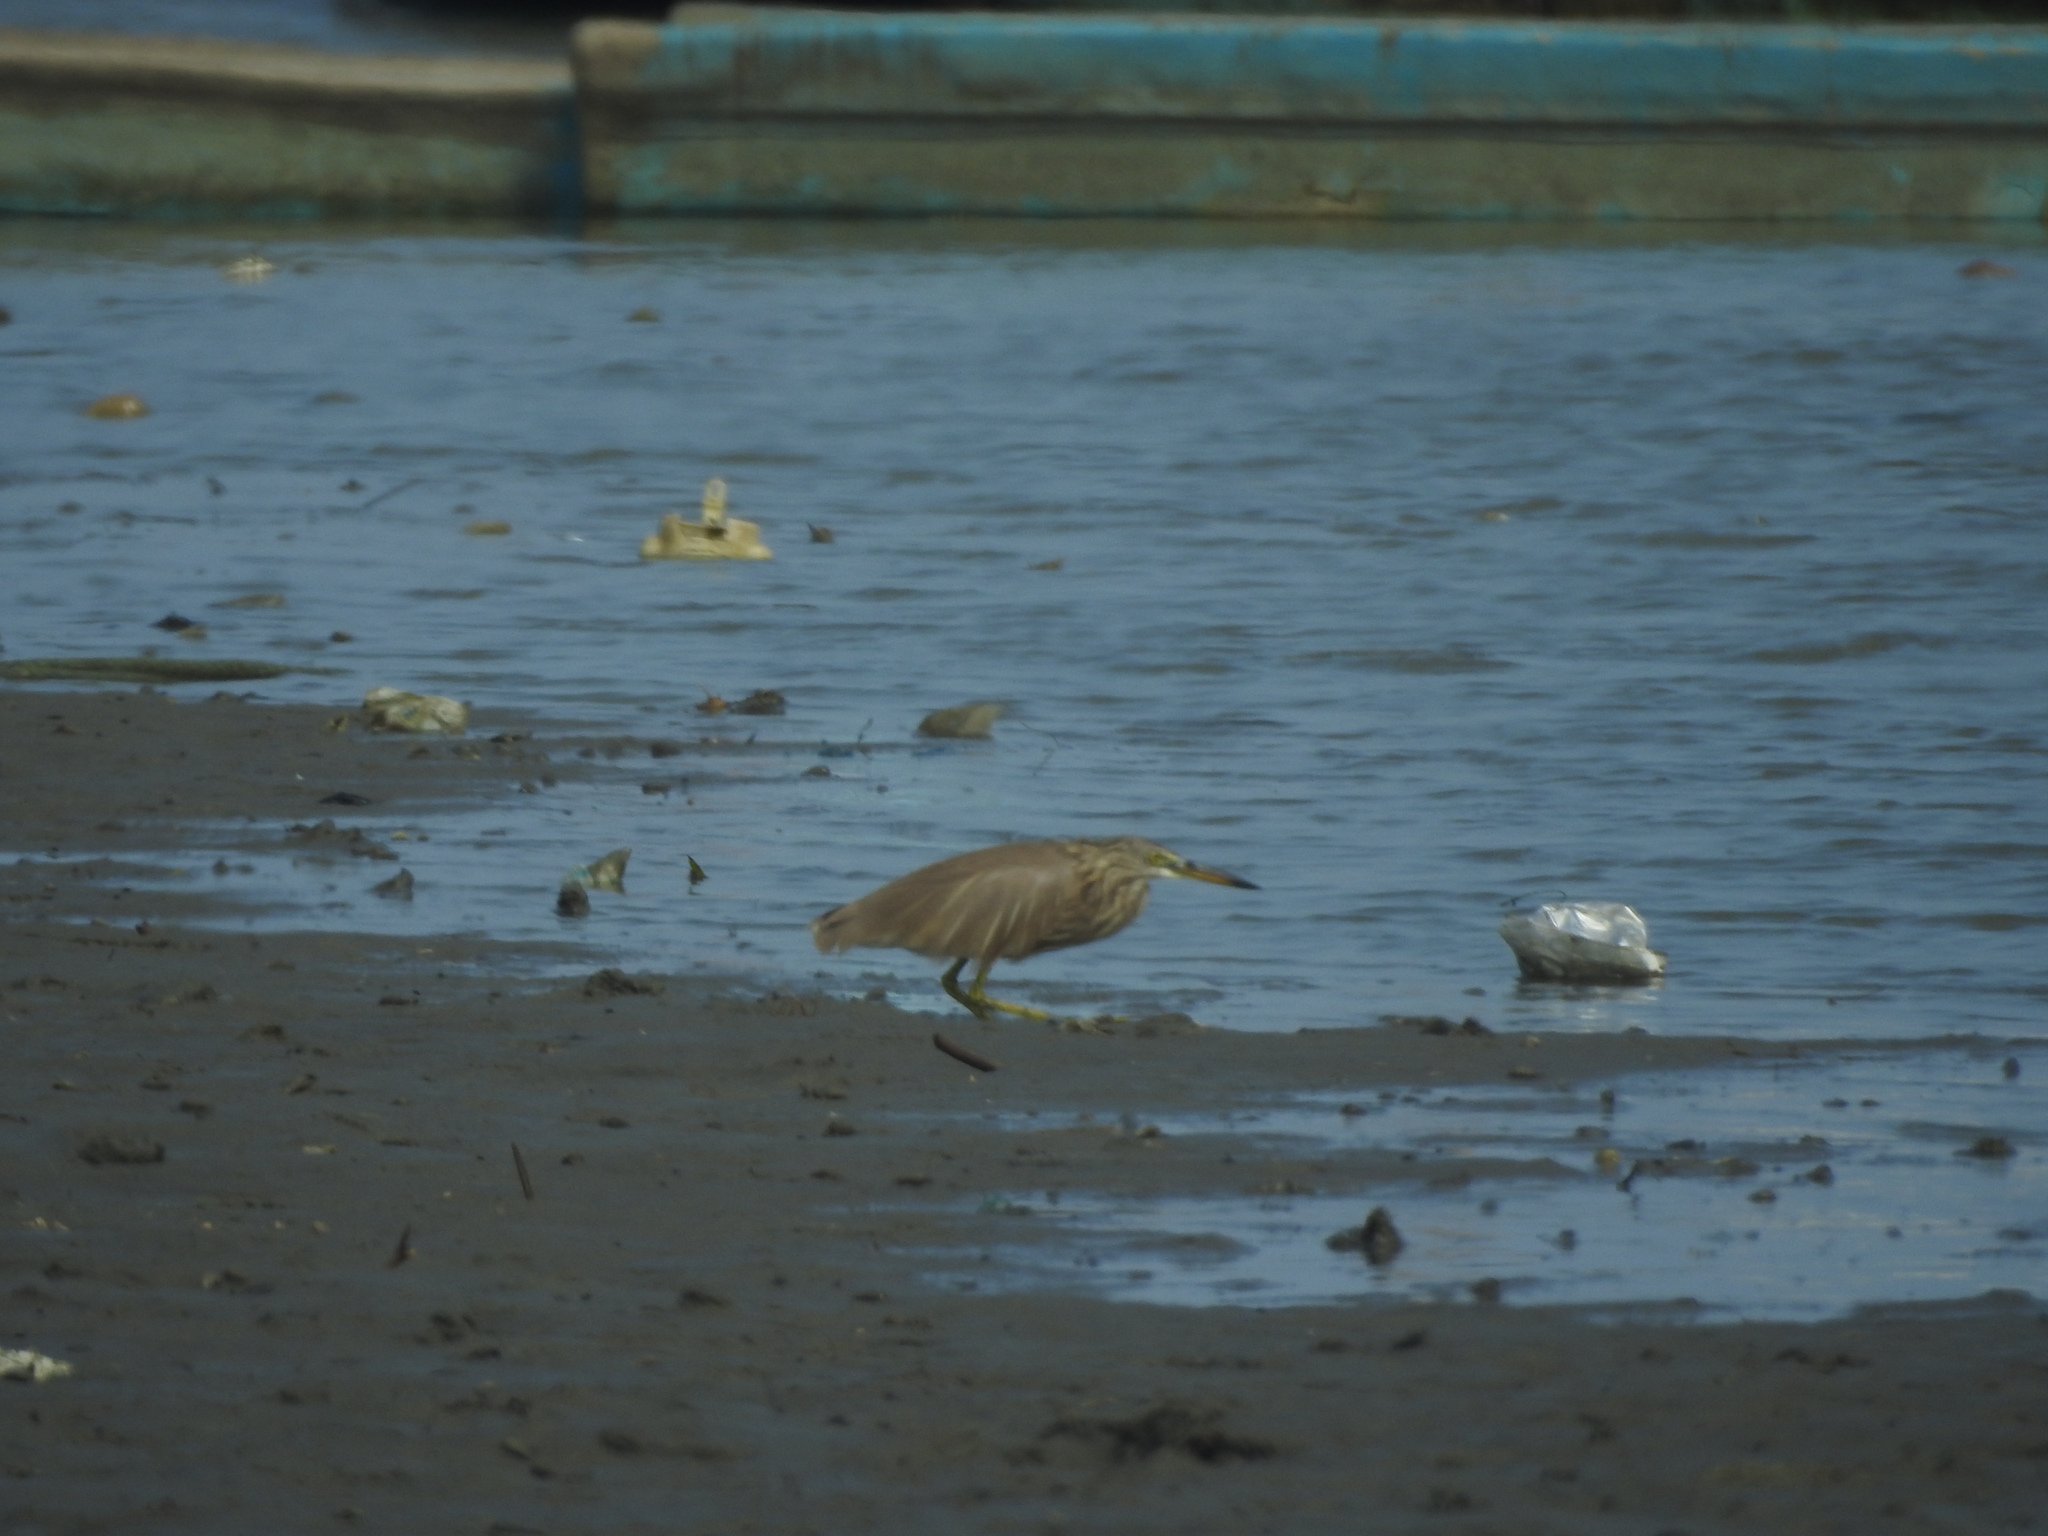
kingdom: Animalia
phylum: Chordata
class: Aves
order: Pelecaniformes
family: Ardeidae
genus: Ardeola
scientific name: Ardeola grayii
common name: Indian pond heron
